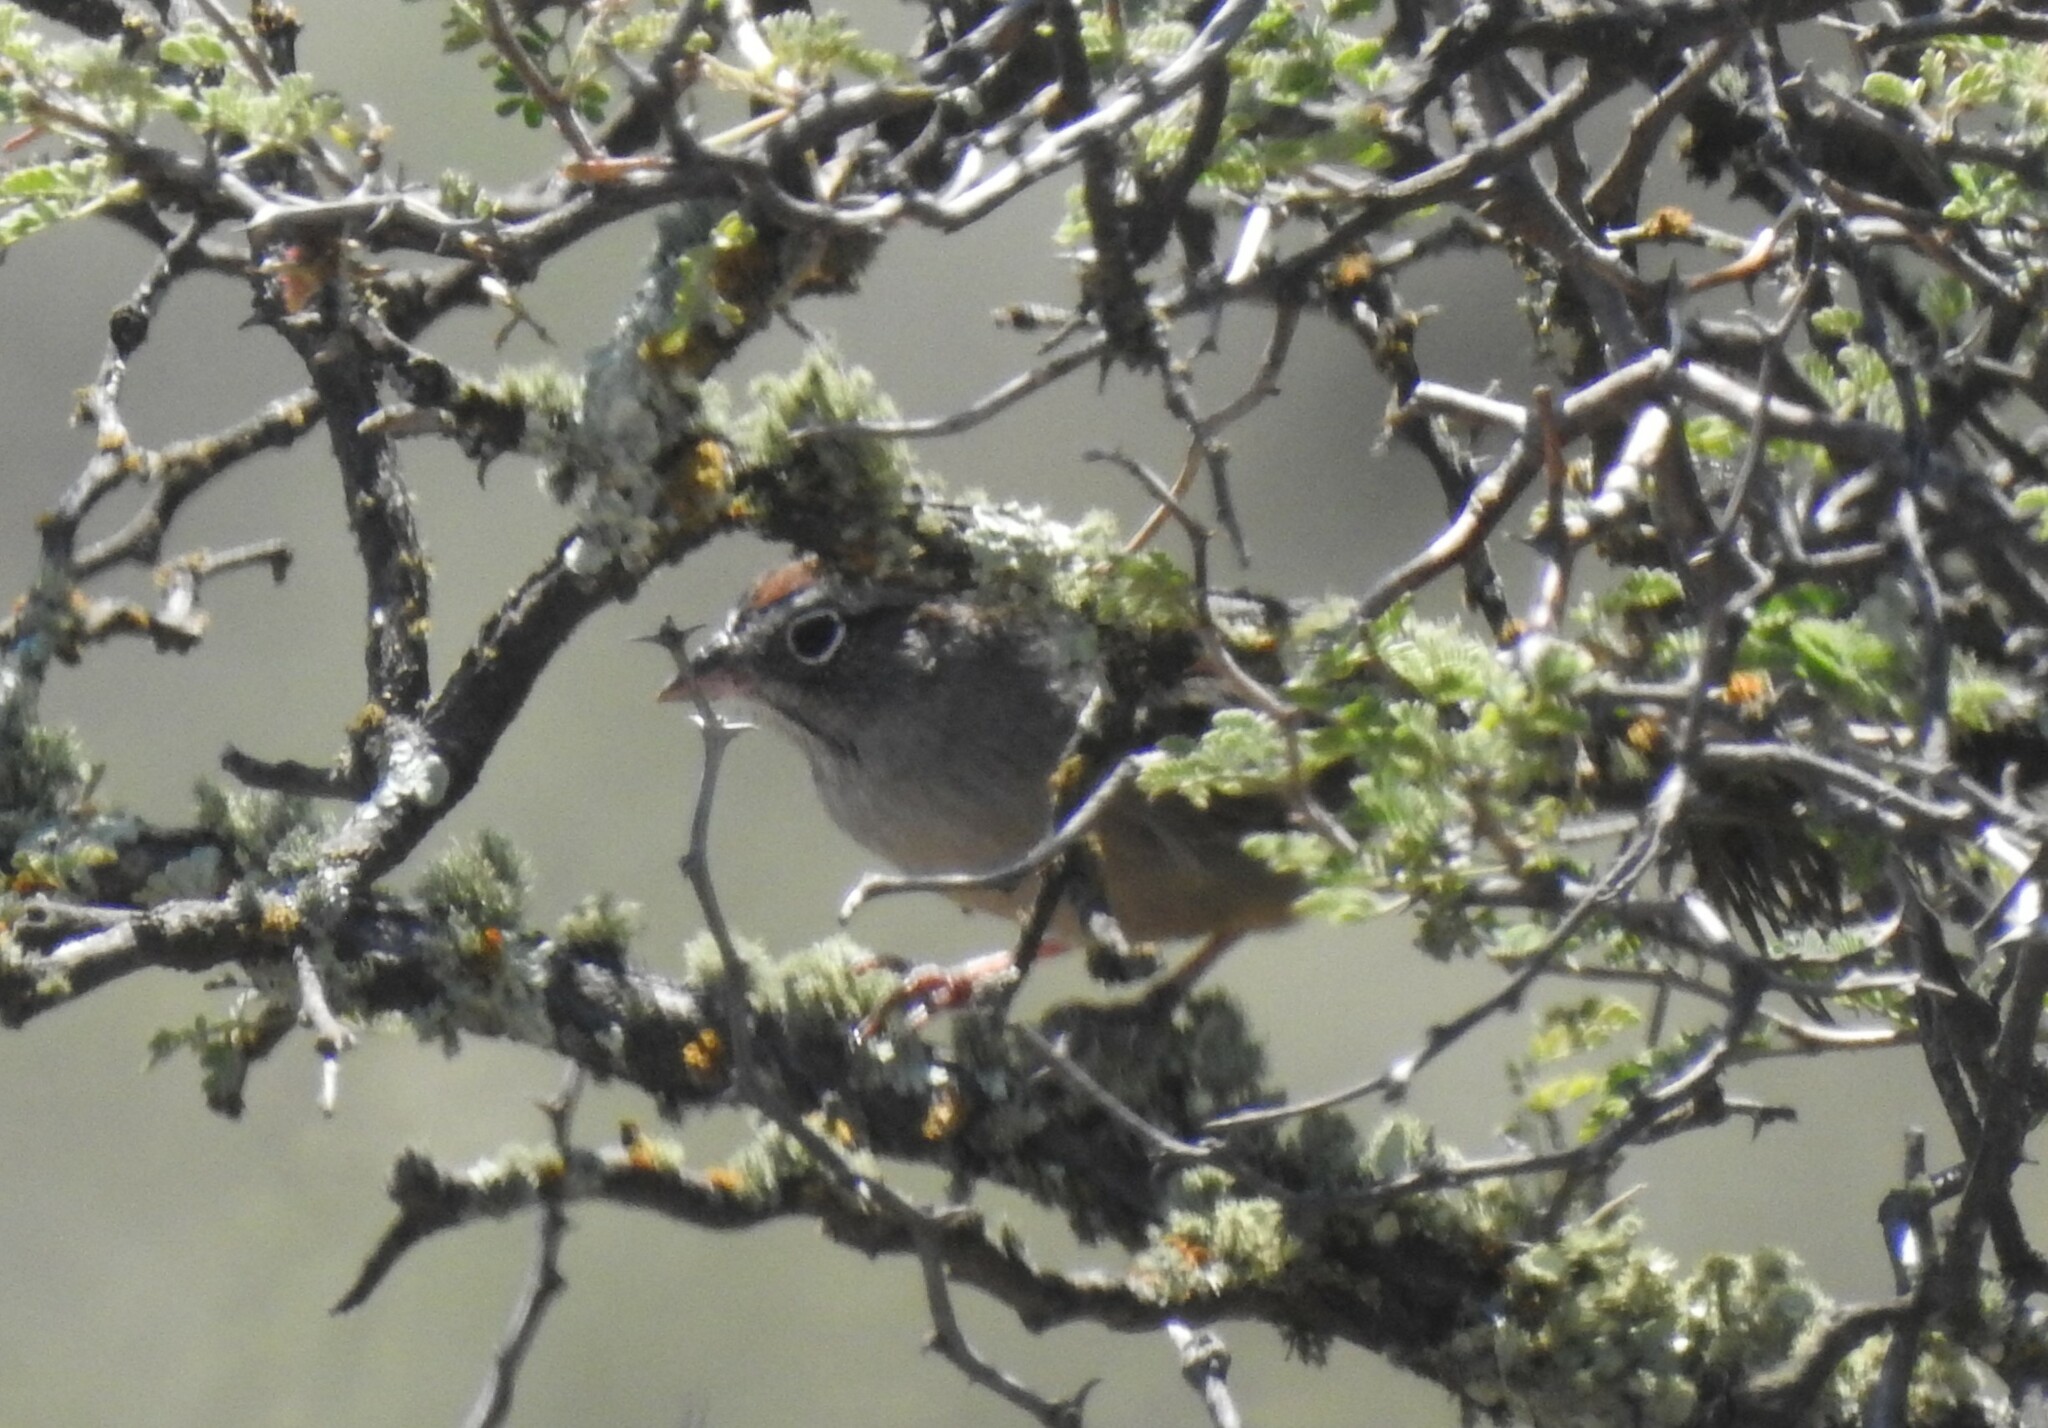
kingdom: Animalia
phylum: Chordata
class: Aves
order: Passeriformes
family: Passerellidae
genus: Aimophila
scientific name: Aimophila ruficeps
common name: Rufous-crowned sparrow
